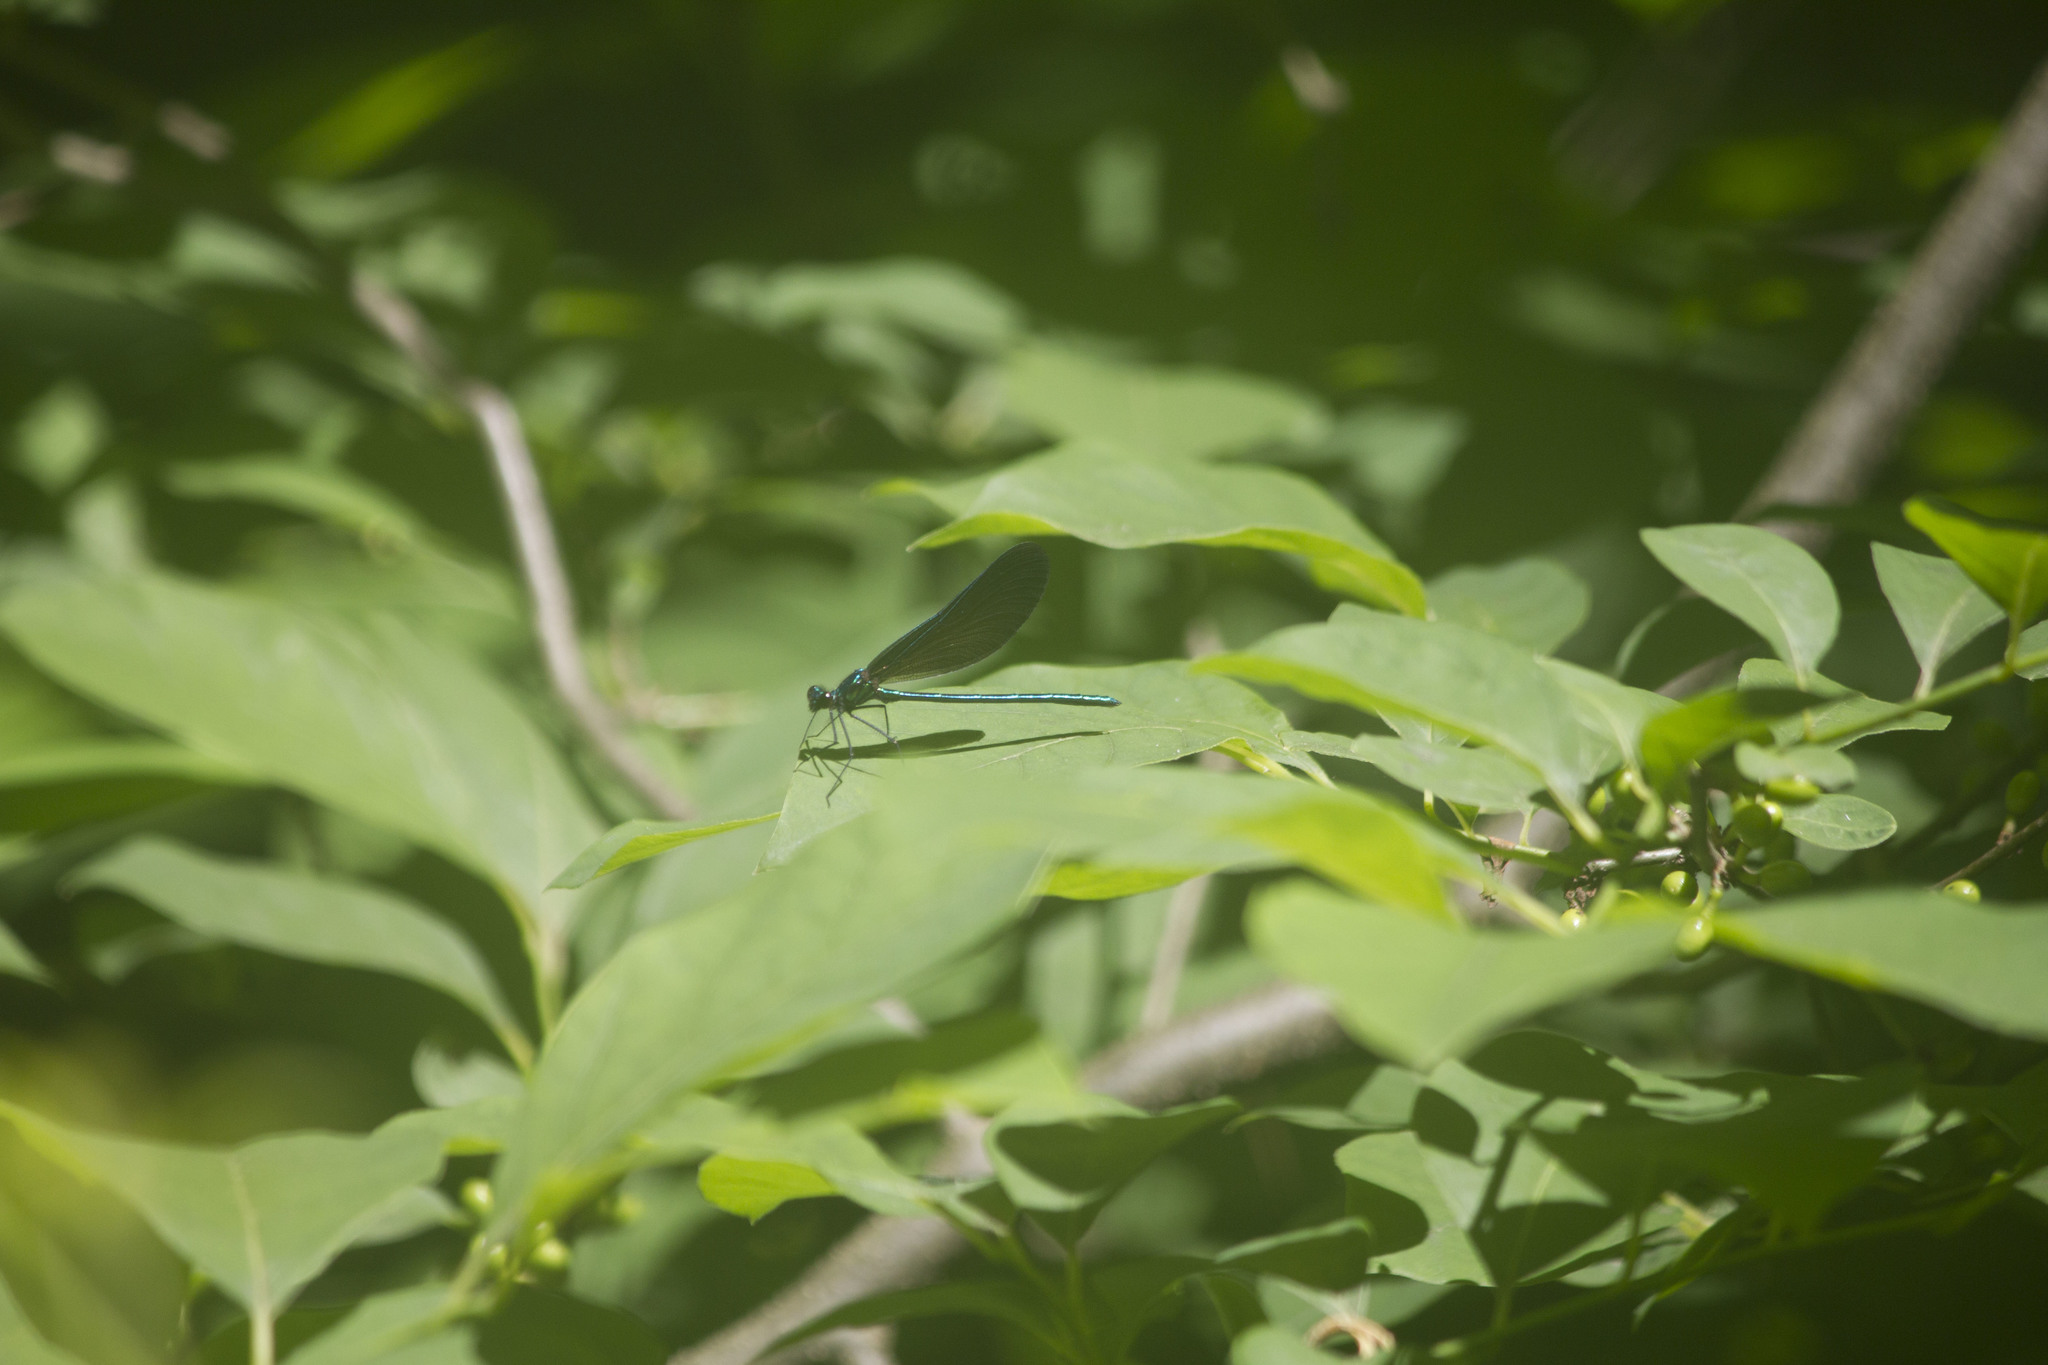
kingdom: Animalia
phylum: Arthropoda
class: Insecta
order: Odonata
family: Calopterygidae
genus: Calopteryx
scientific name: Calopteryx maculata
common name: Ebony jewelwing
